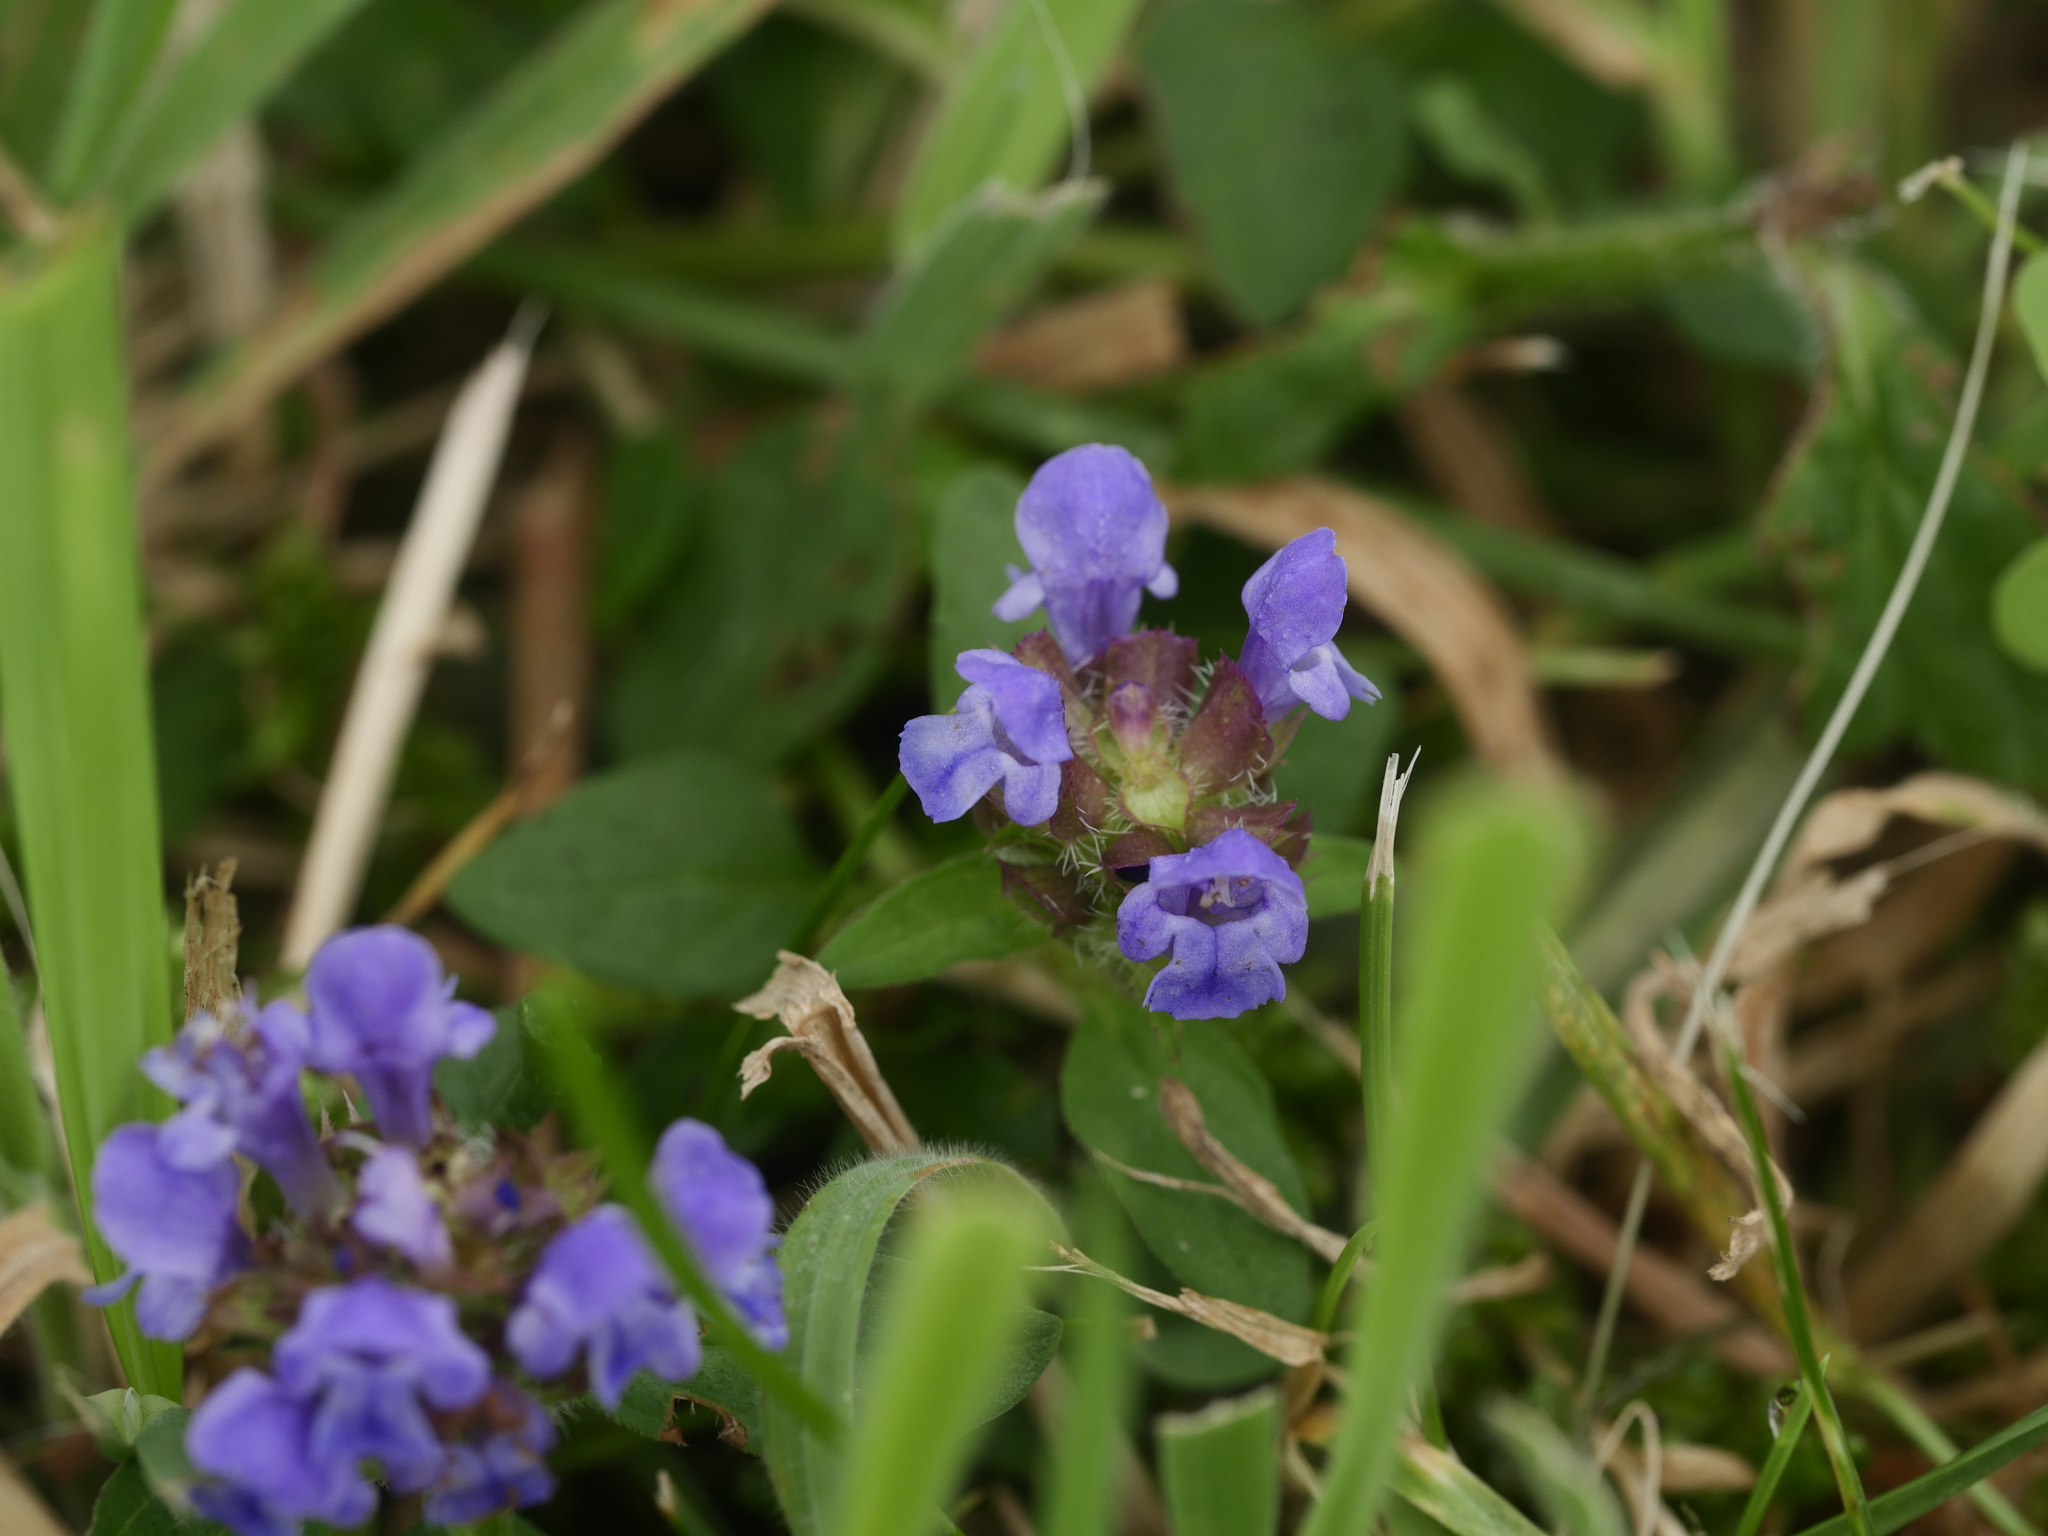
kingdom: Plantae
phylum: Tracheophyta
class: Magnoliopsida
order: Lamiales
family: Lamiaceae
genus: Prunella
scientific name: Prunella vulgaris
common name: Heal-all
